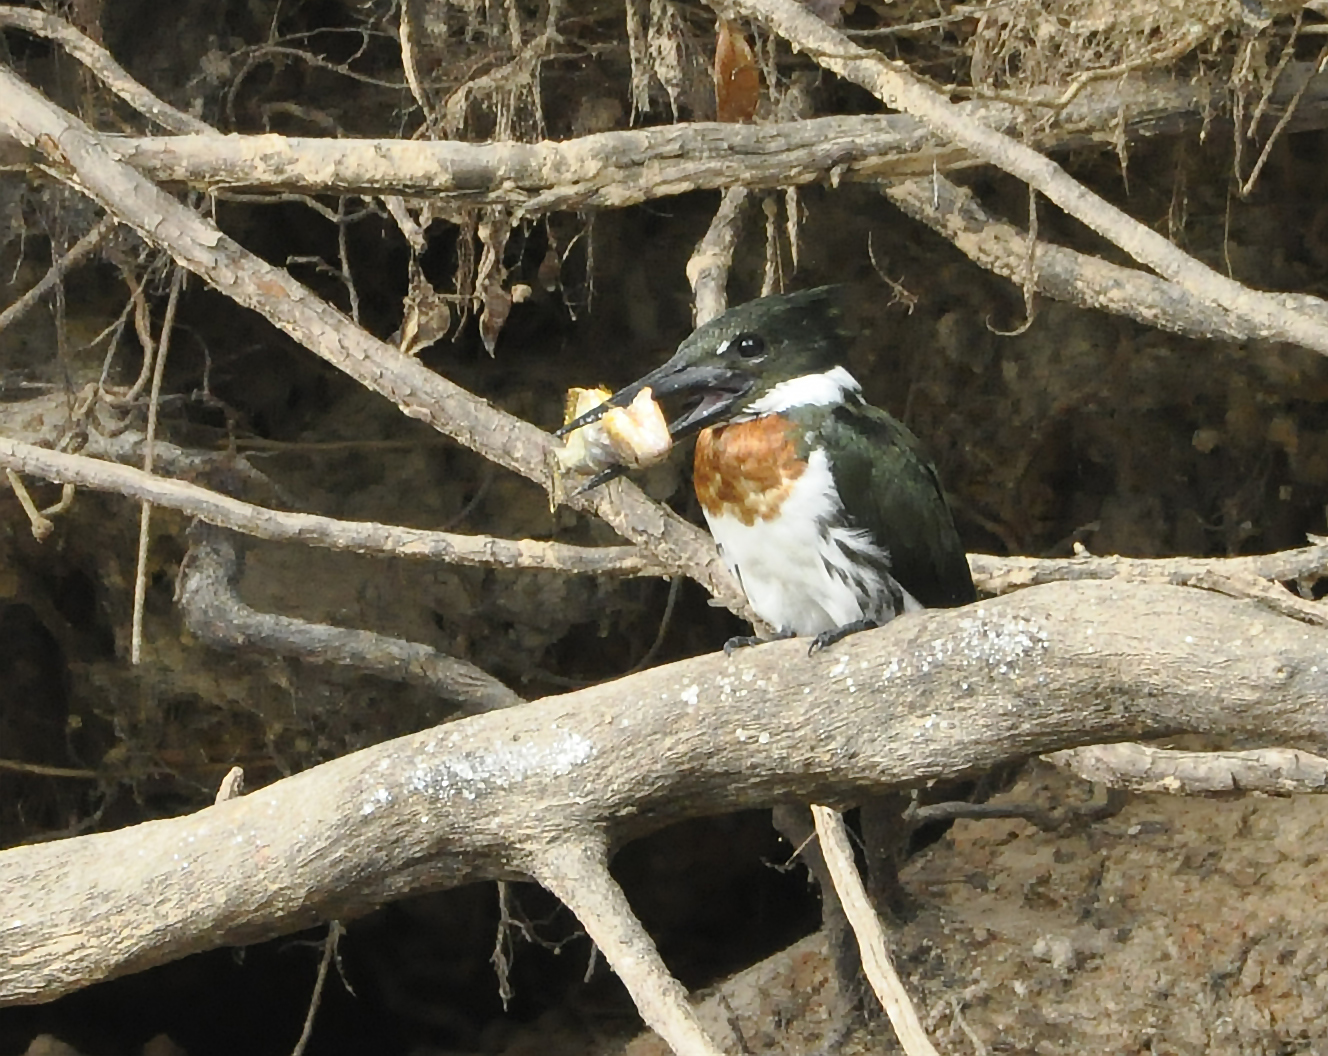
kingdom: Animalia
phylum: Chordata
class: Aves
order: Coraciiformes
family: Alcedinidae
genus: Chloroceryle
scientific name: Chloroceryle amazona
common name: Amazon kingfisher
